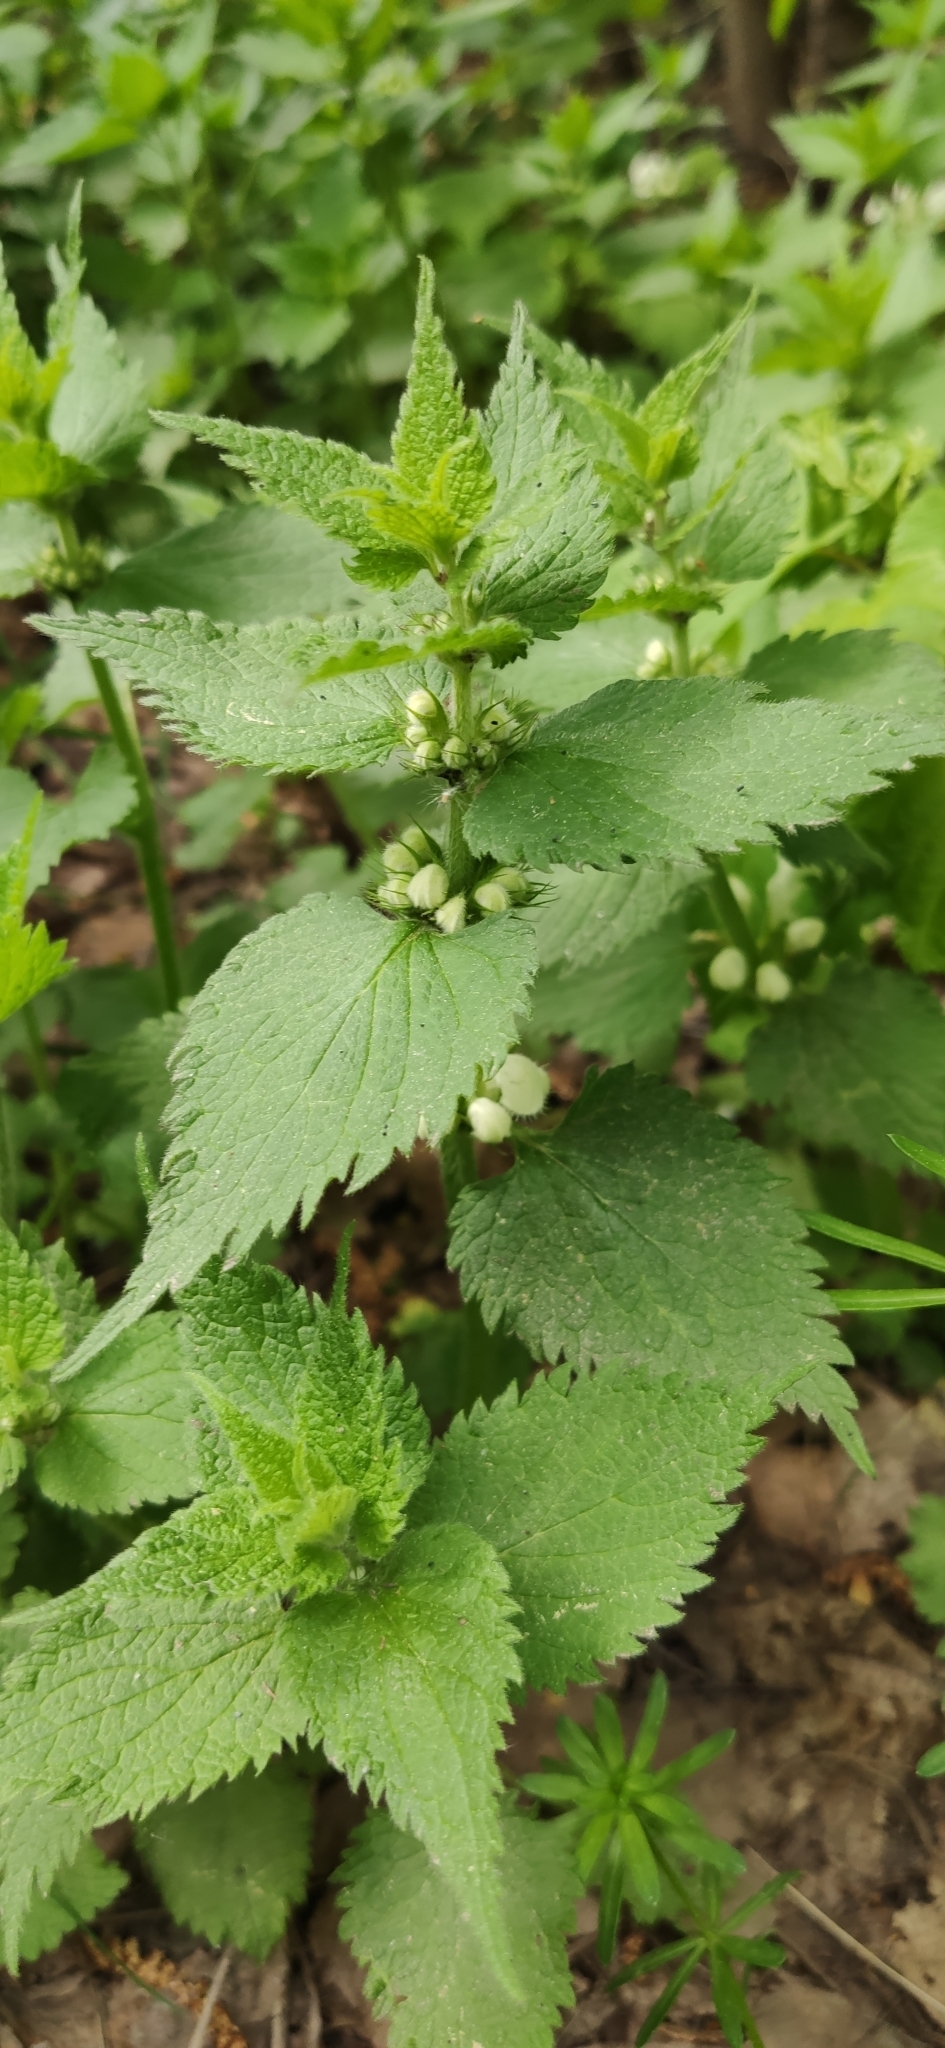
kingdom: Plantae
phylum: Tracheophyta
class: Magnoliopsida
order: Lamiales
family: Lamiaceae
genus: Lamium
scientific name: Lamium album
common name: White dead-nettle
